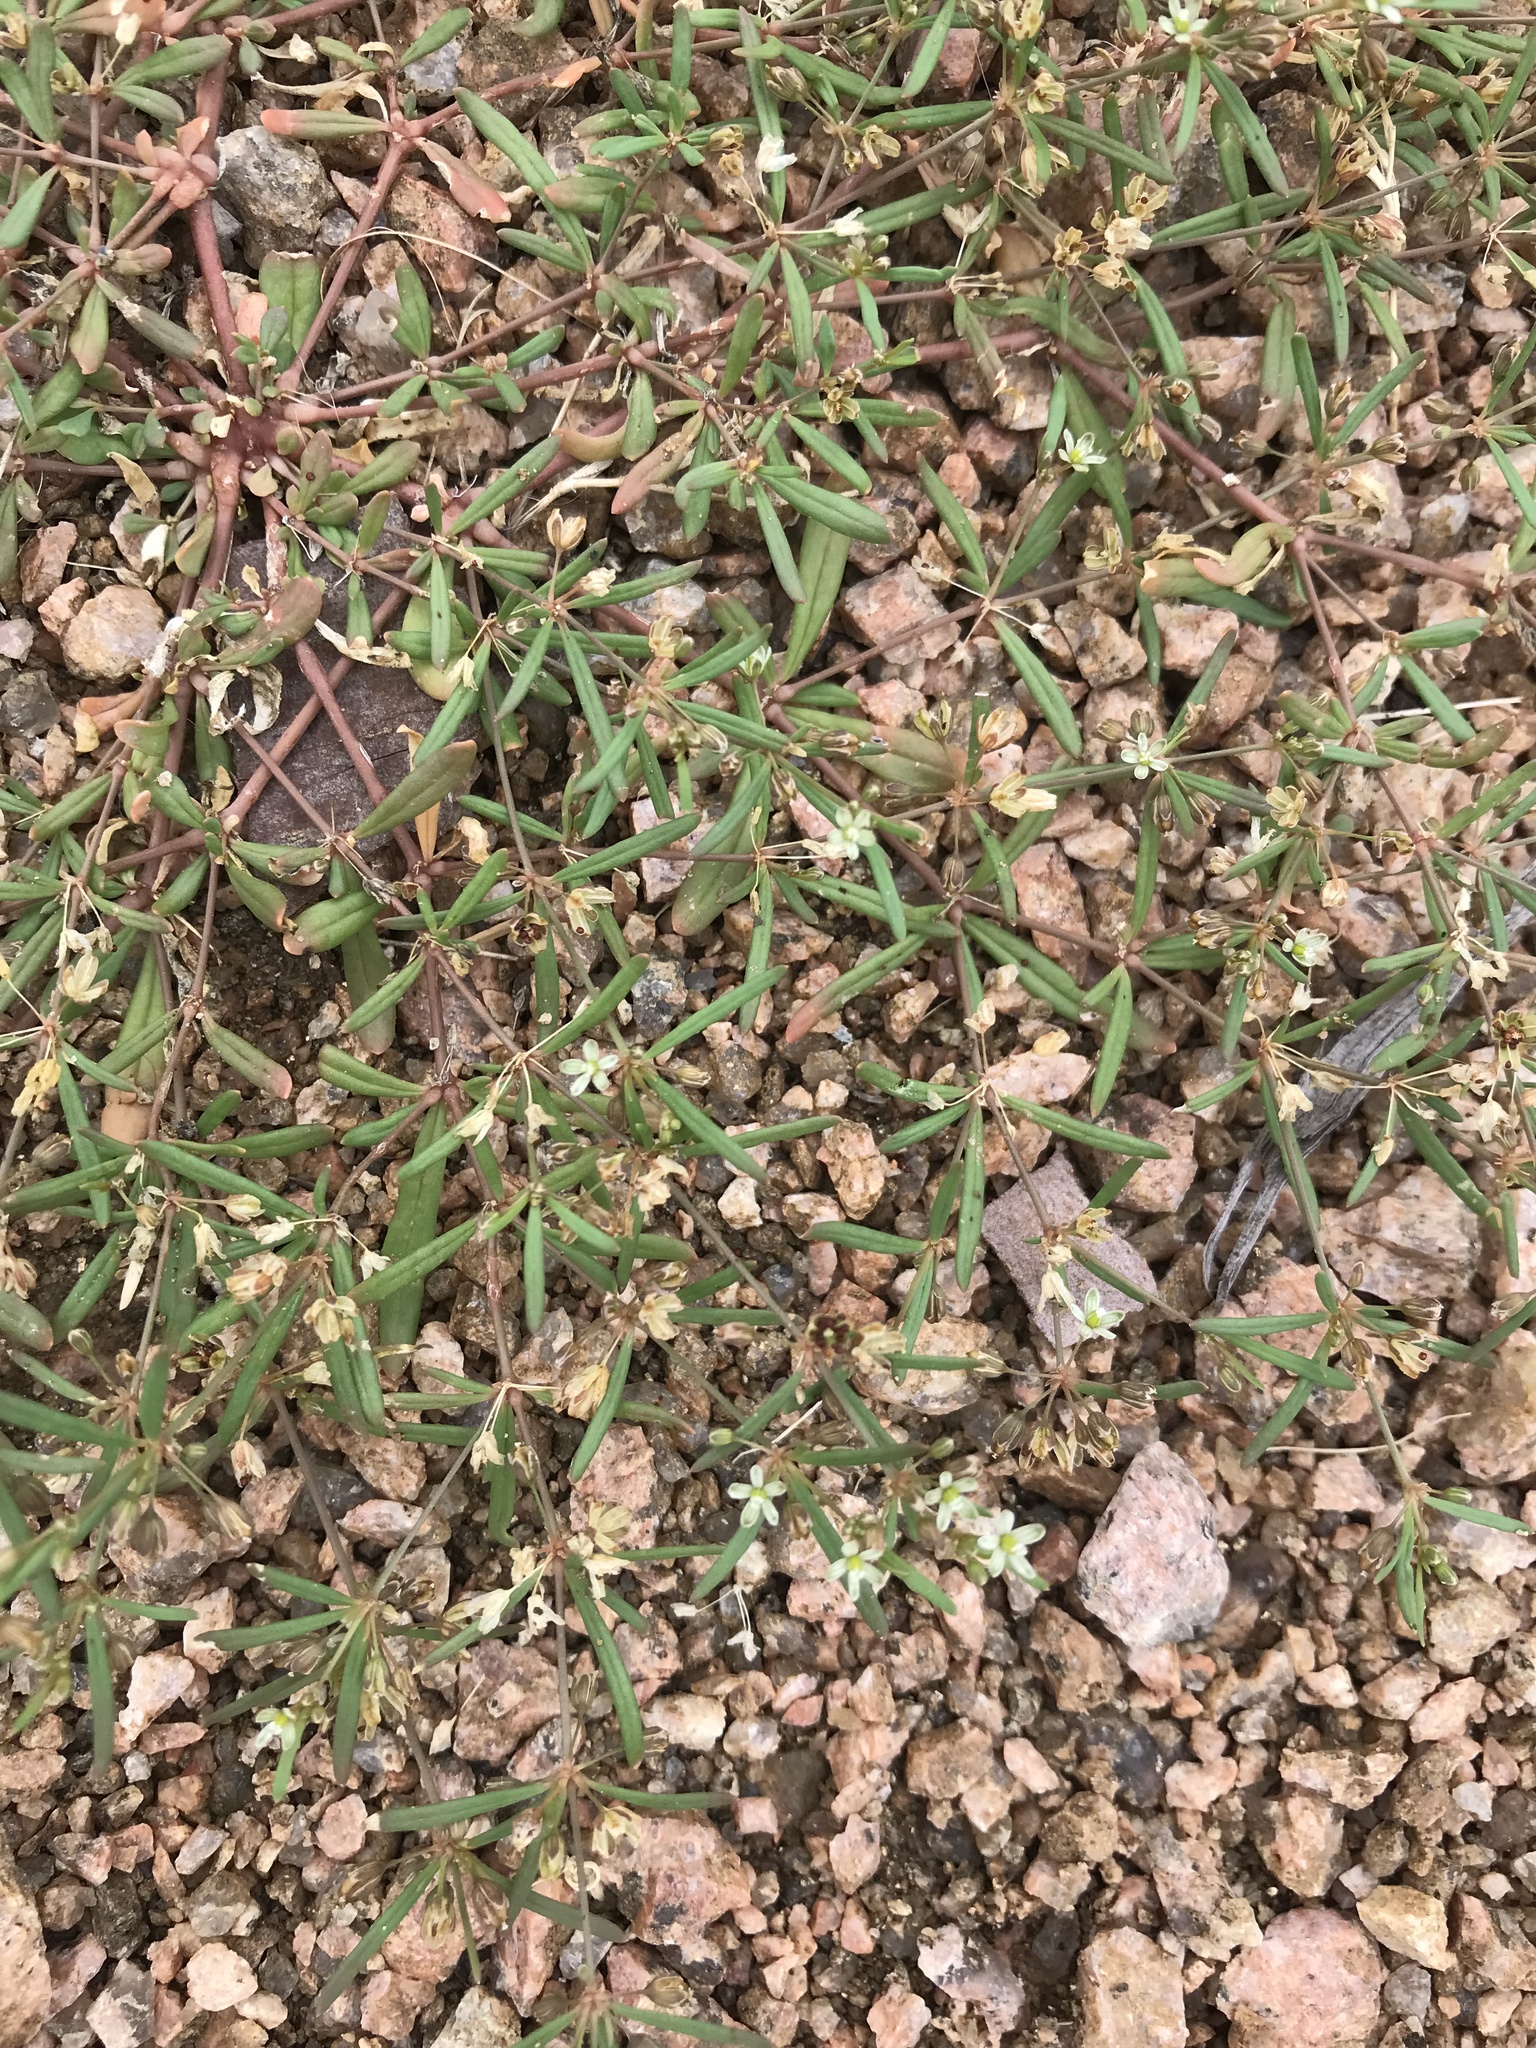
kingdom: Plantae
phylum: Tracheophyta
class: Magnoliopsida
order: Caryophyllales
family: Molluginaceae
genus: Mollugo
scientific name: Mollugo verticillata
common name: Green carpetweed
